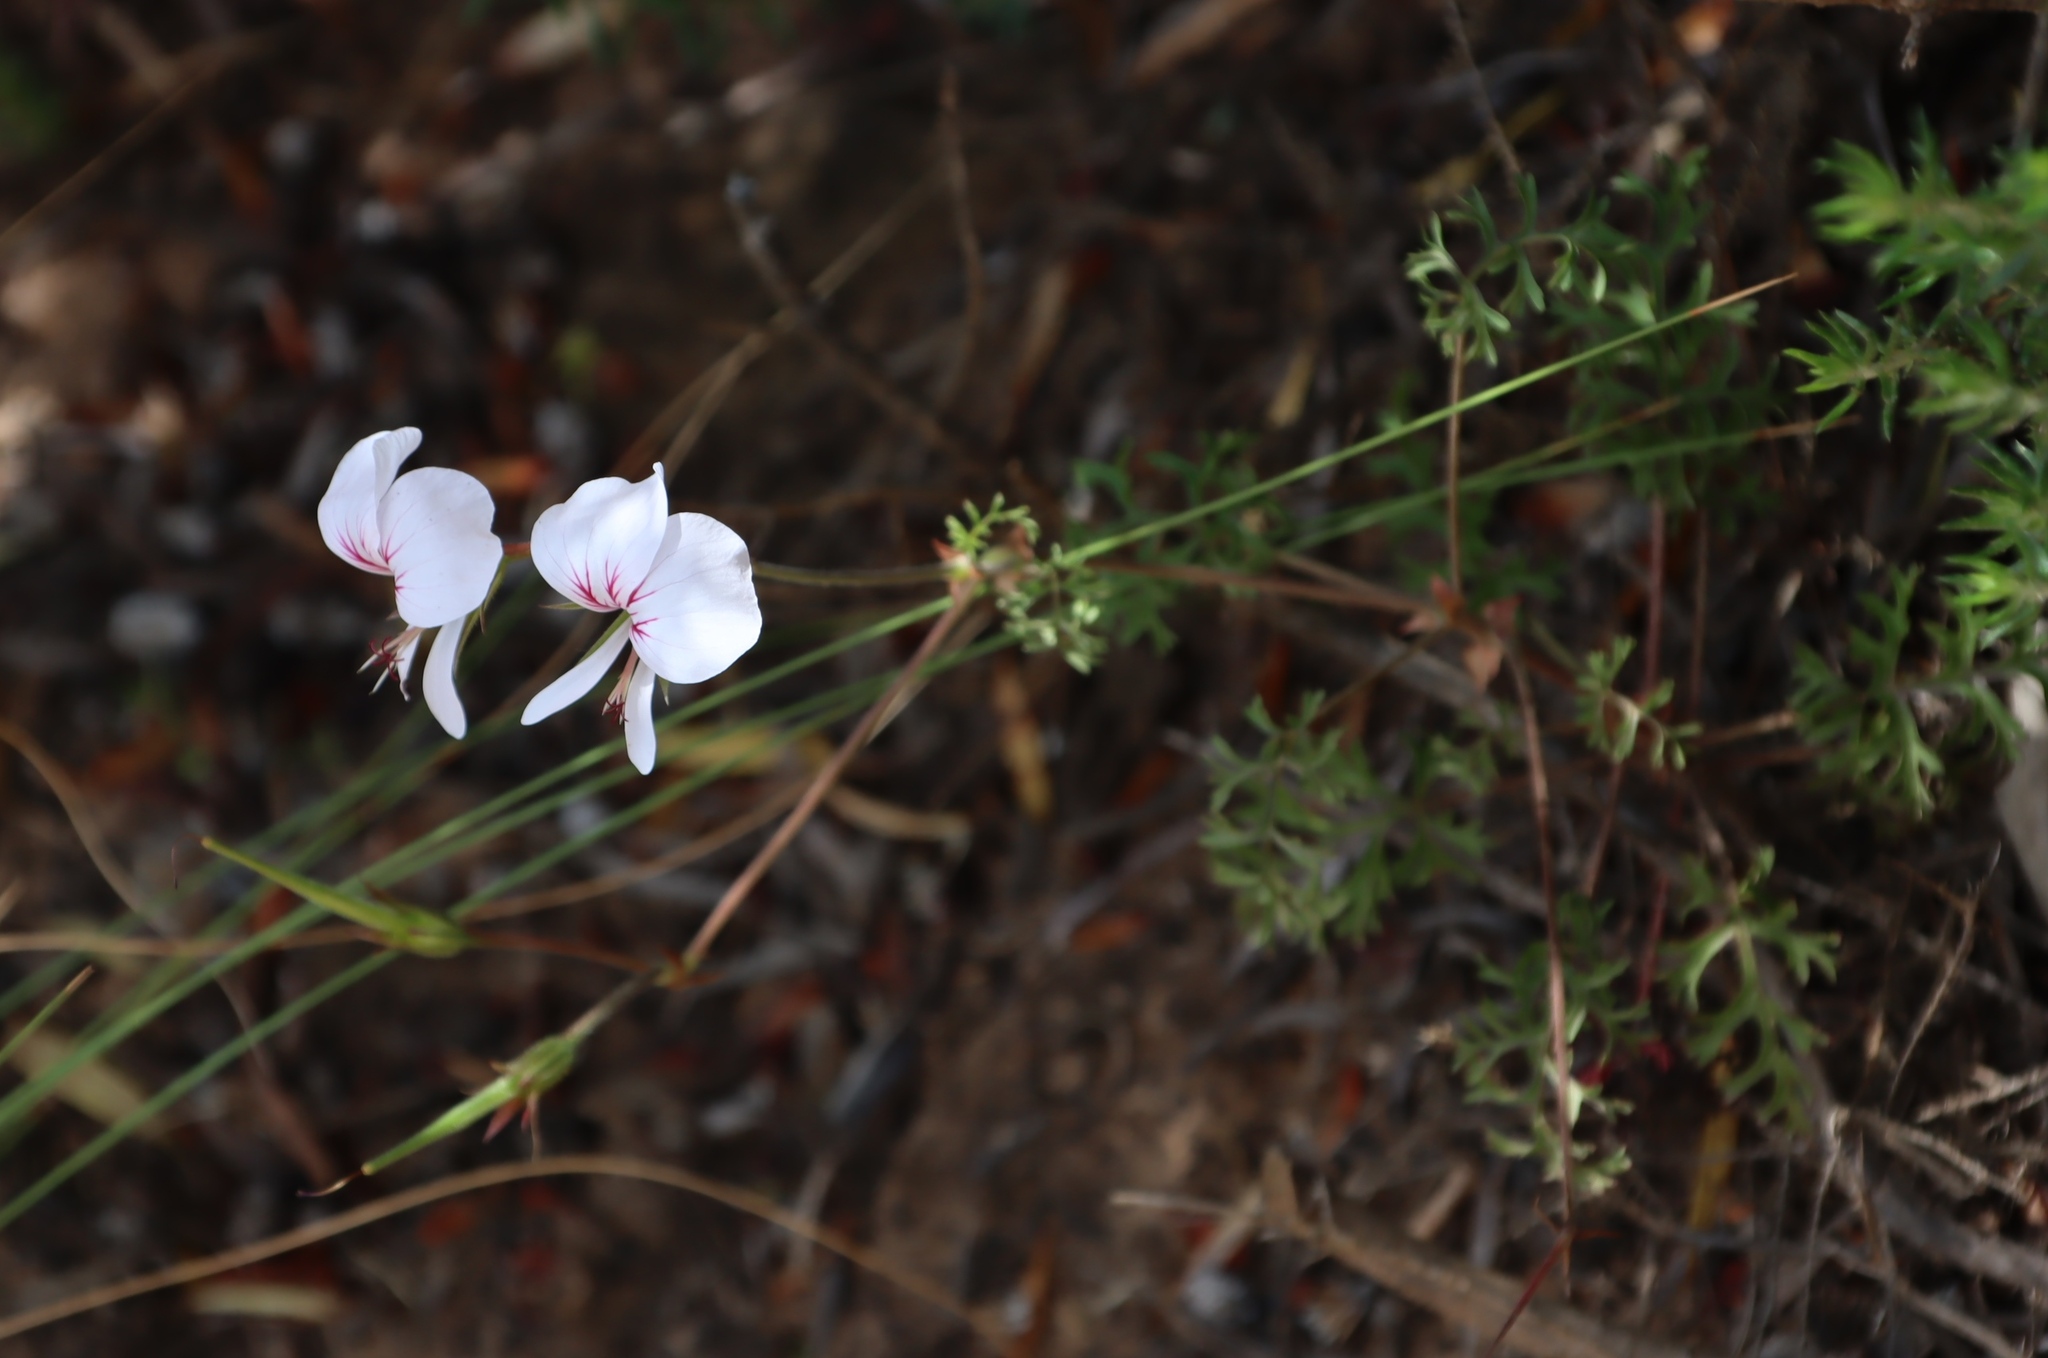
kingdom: Plantae
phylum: Tracheophyta
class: Magnoliopsida
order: Geraniales
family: Geraniaceae
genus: Pelargonium
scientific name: Pelargonium longicaule
